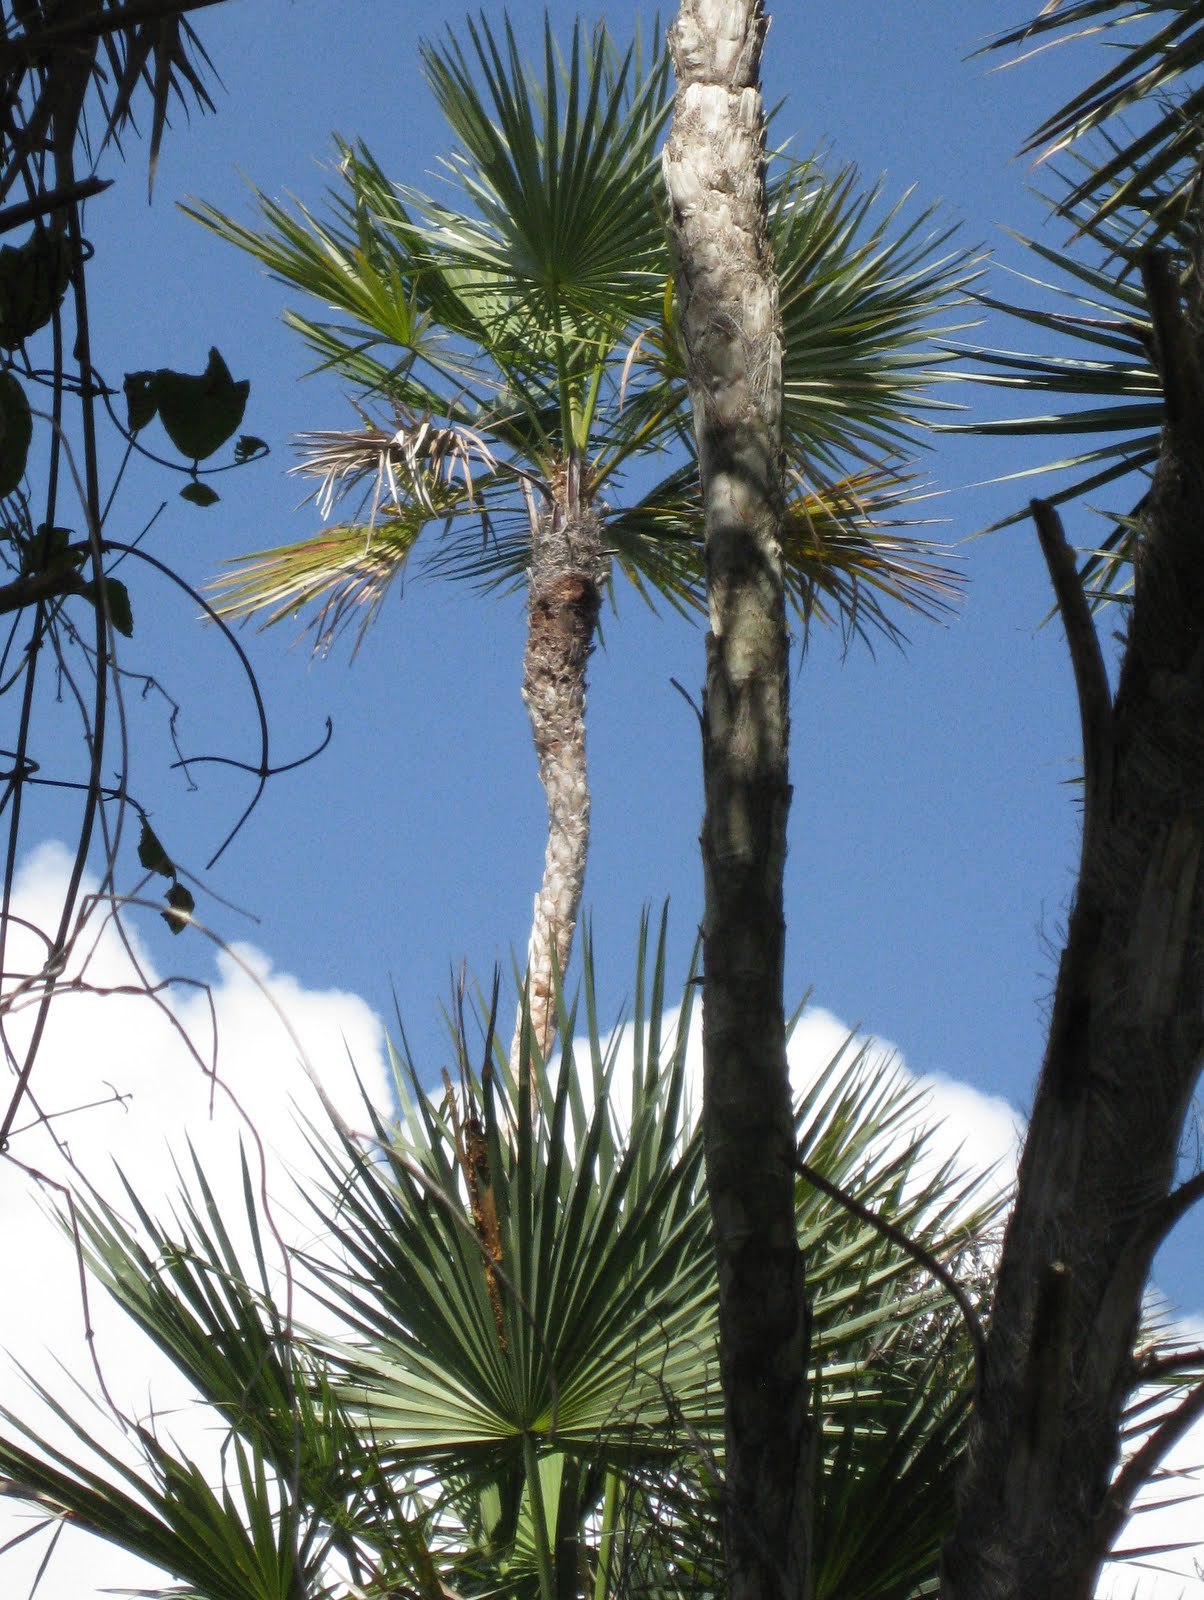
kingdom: Plantae
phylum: Tracheophyta
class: Liliopsida
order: Arecales
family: Arecaceae
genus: Acoelorraphe
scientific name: Acoelorraphe wrightii
